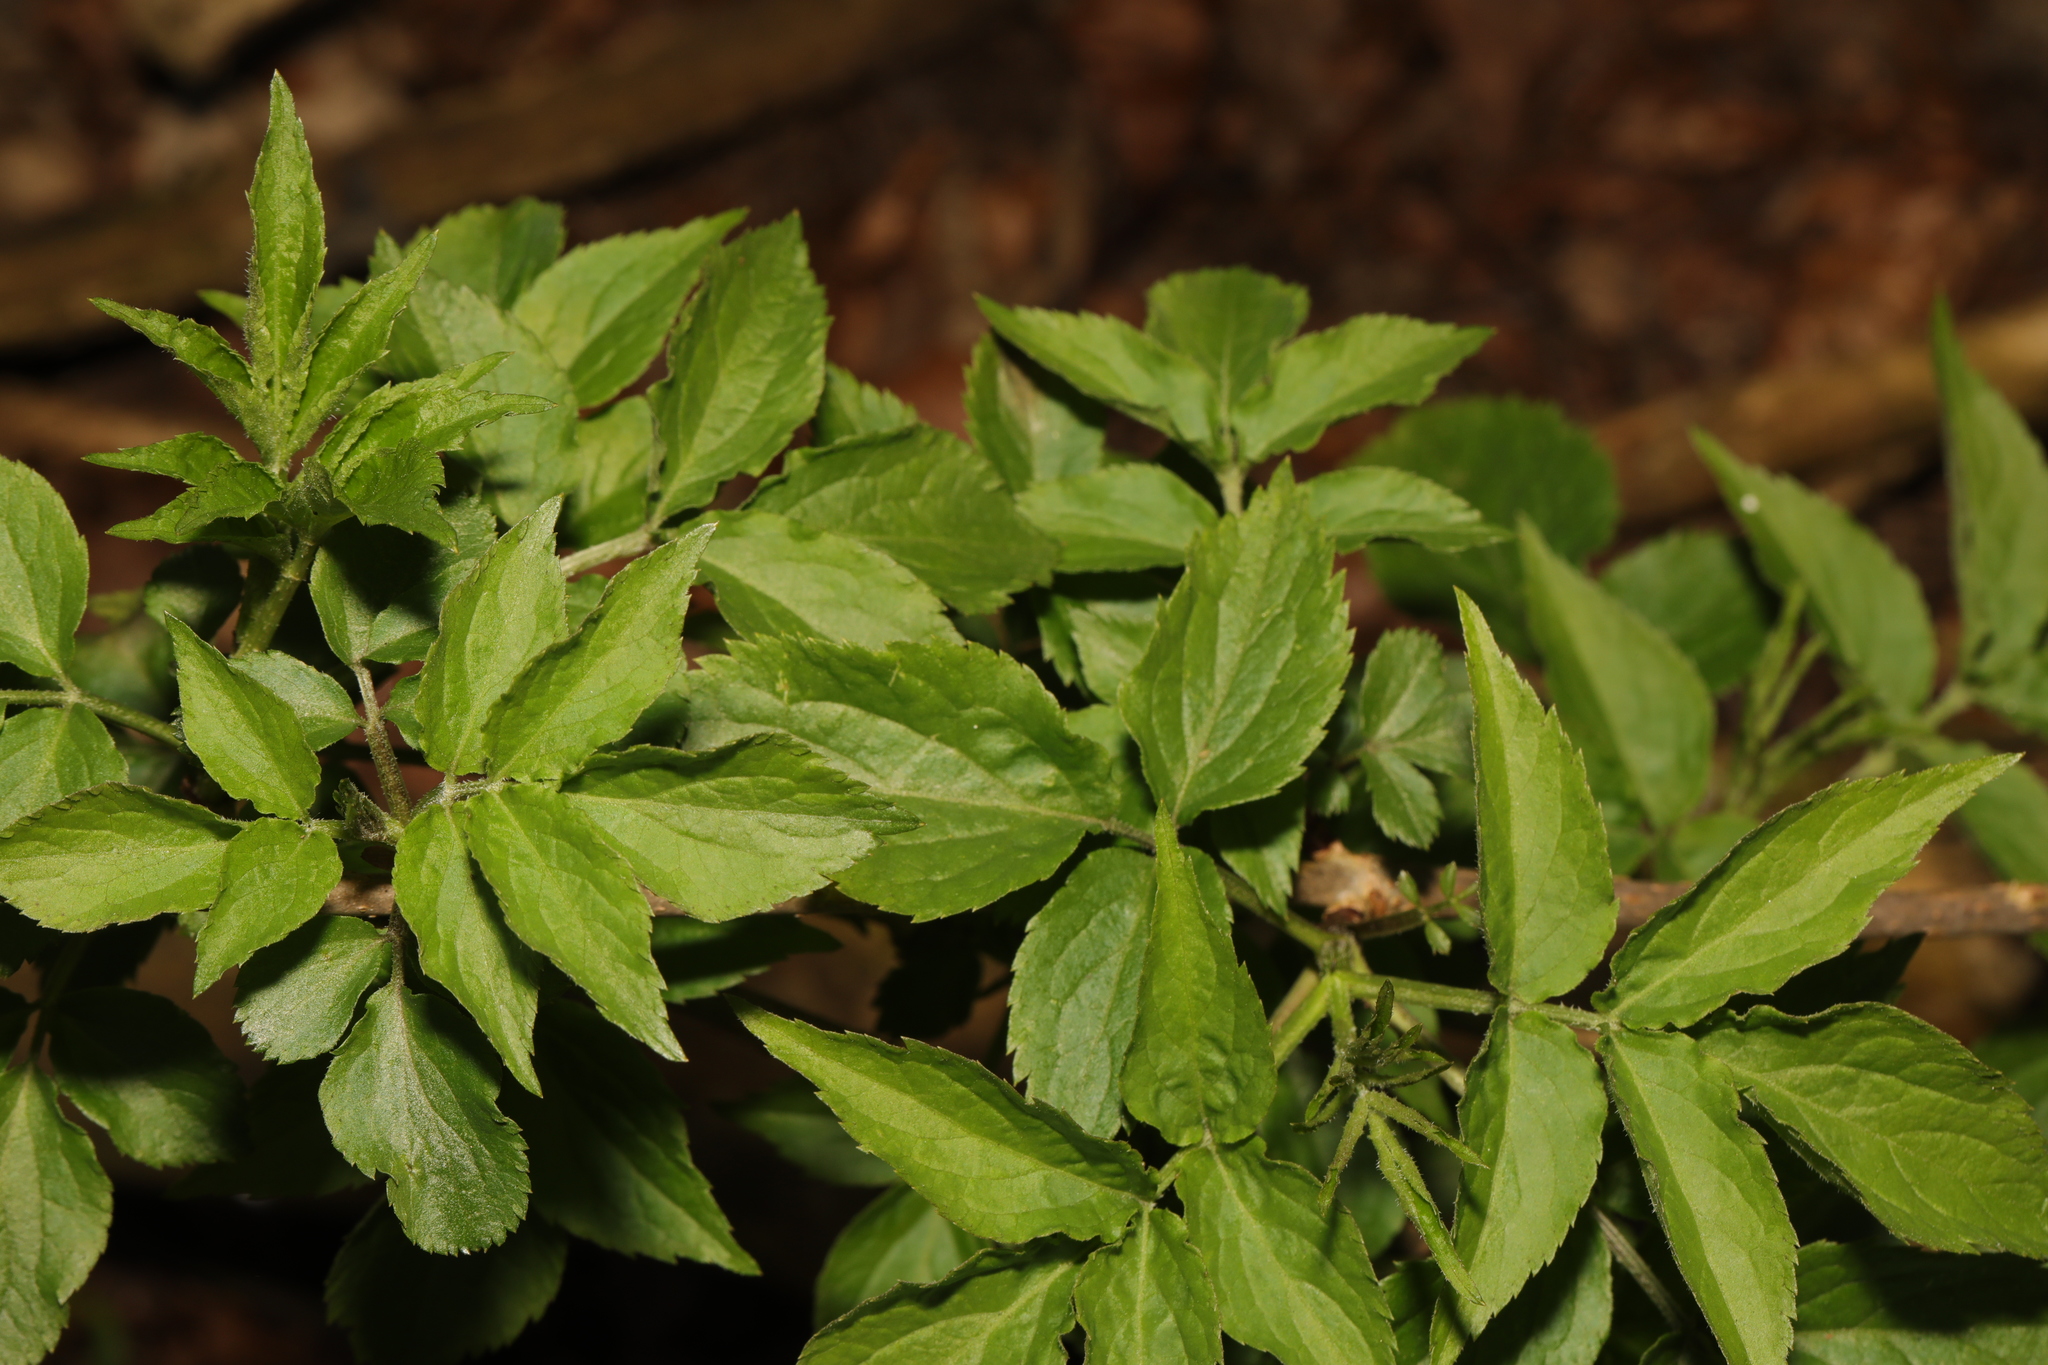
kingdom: Plantae
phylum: Tracheophyta
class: Magnoliopsida
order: Dipsacales
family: Viburnaceae
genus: Sambucus
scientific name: Sambucus nigra
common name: Elder
